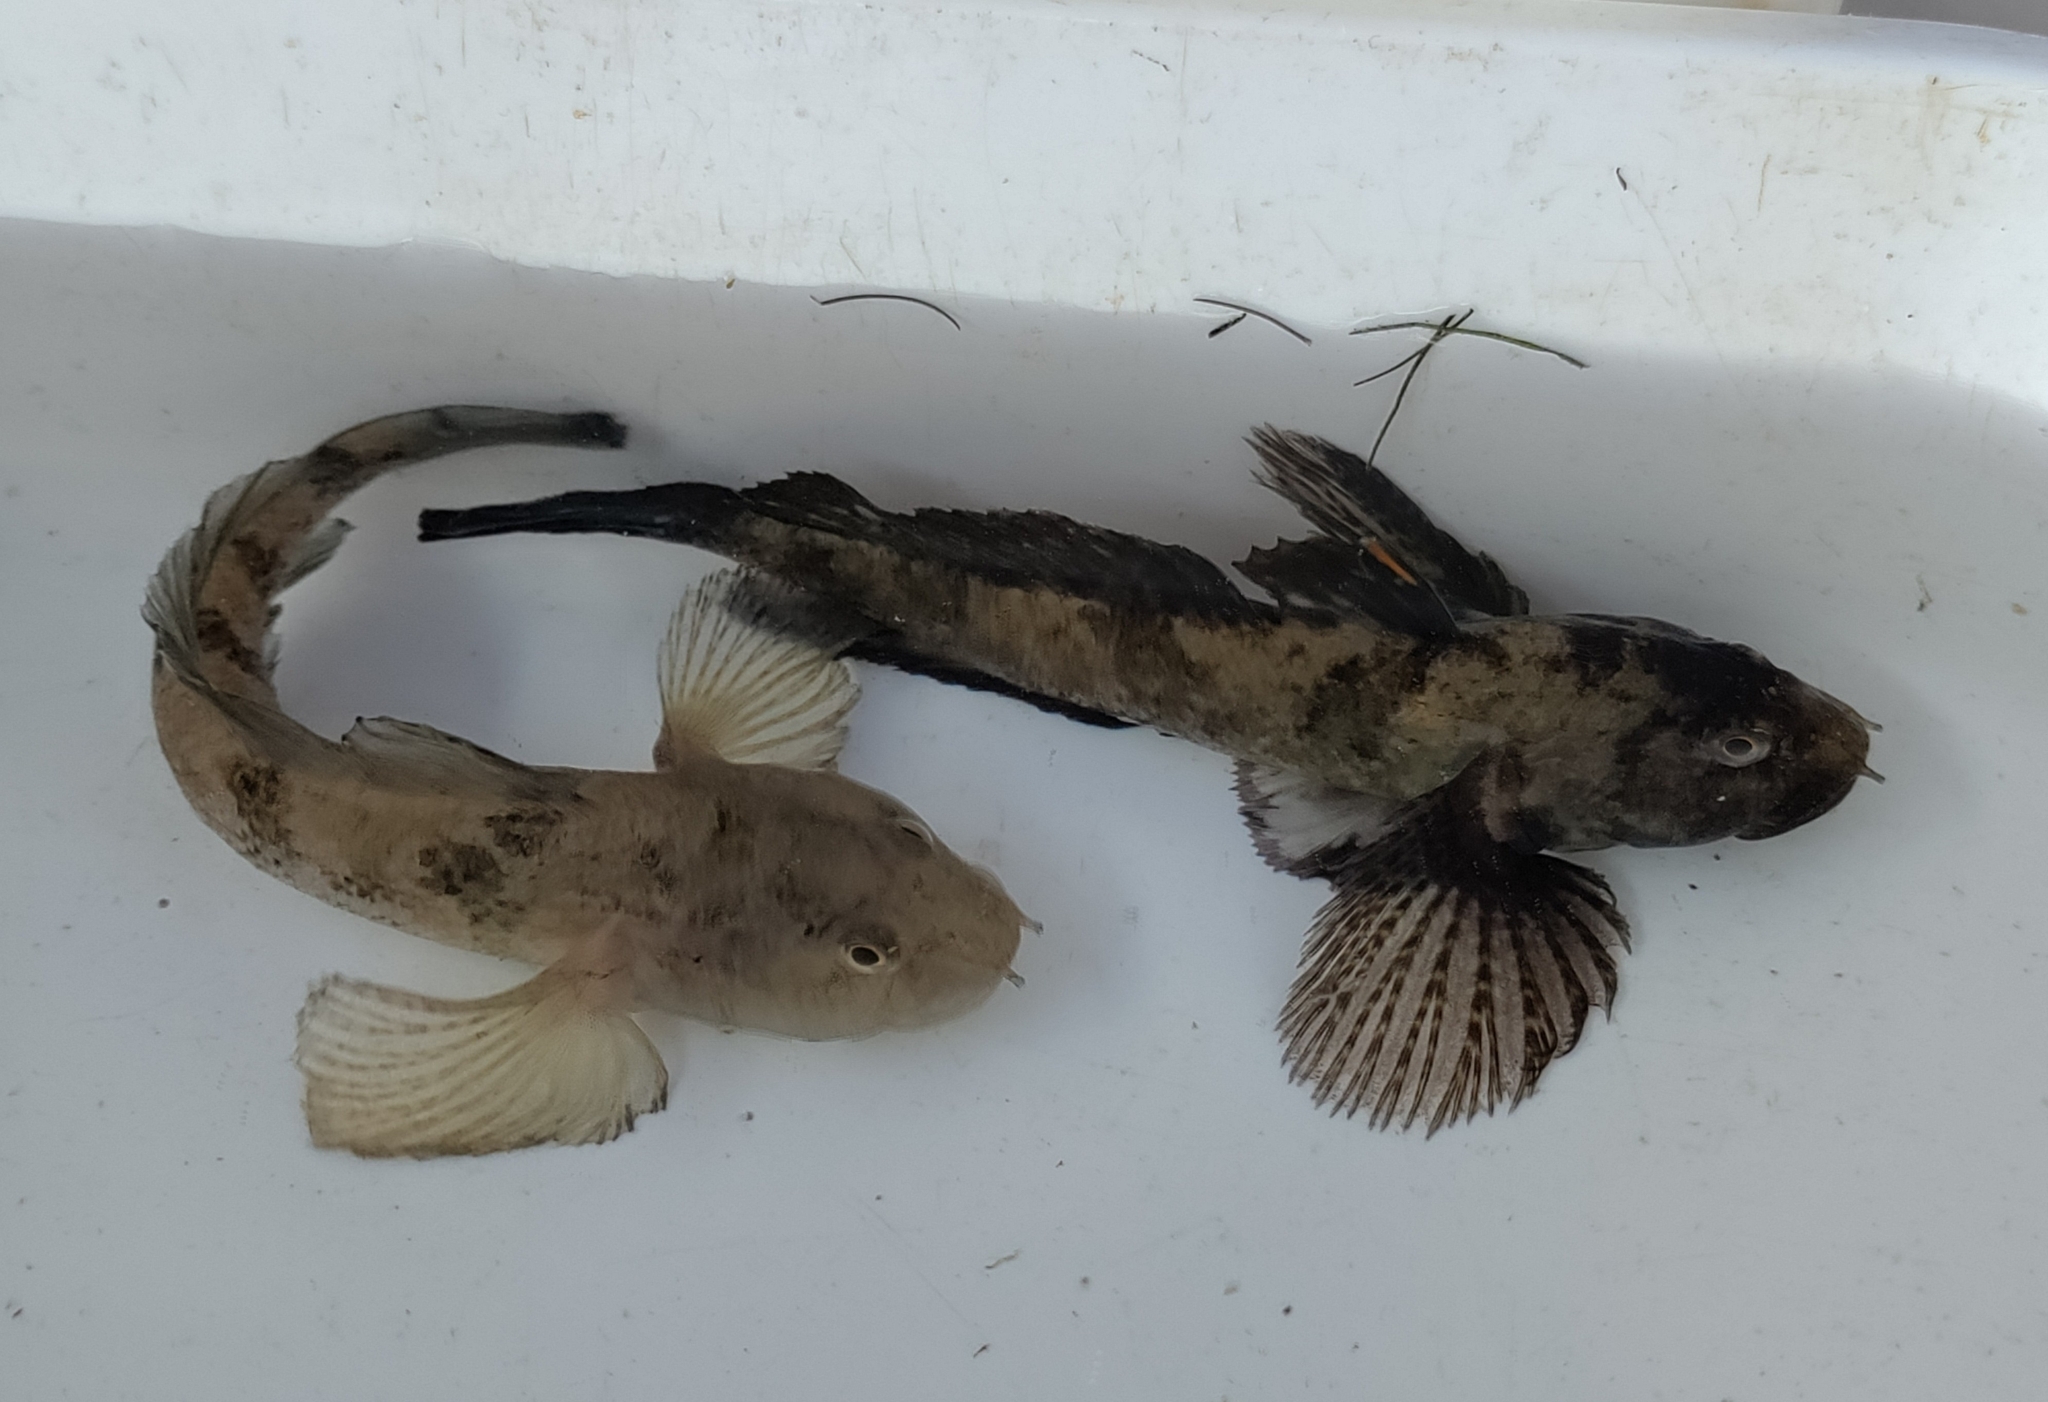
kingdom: Animalia
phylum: Chordata
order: Perciformes
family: Gobiidae
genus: Proterorhinus
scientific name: Proterorhinus semilunaris
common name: Western tubenose goby
